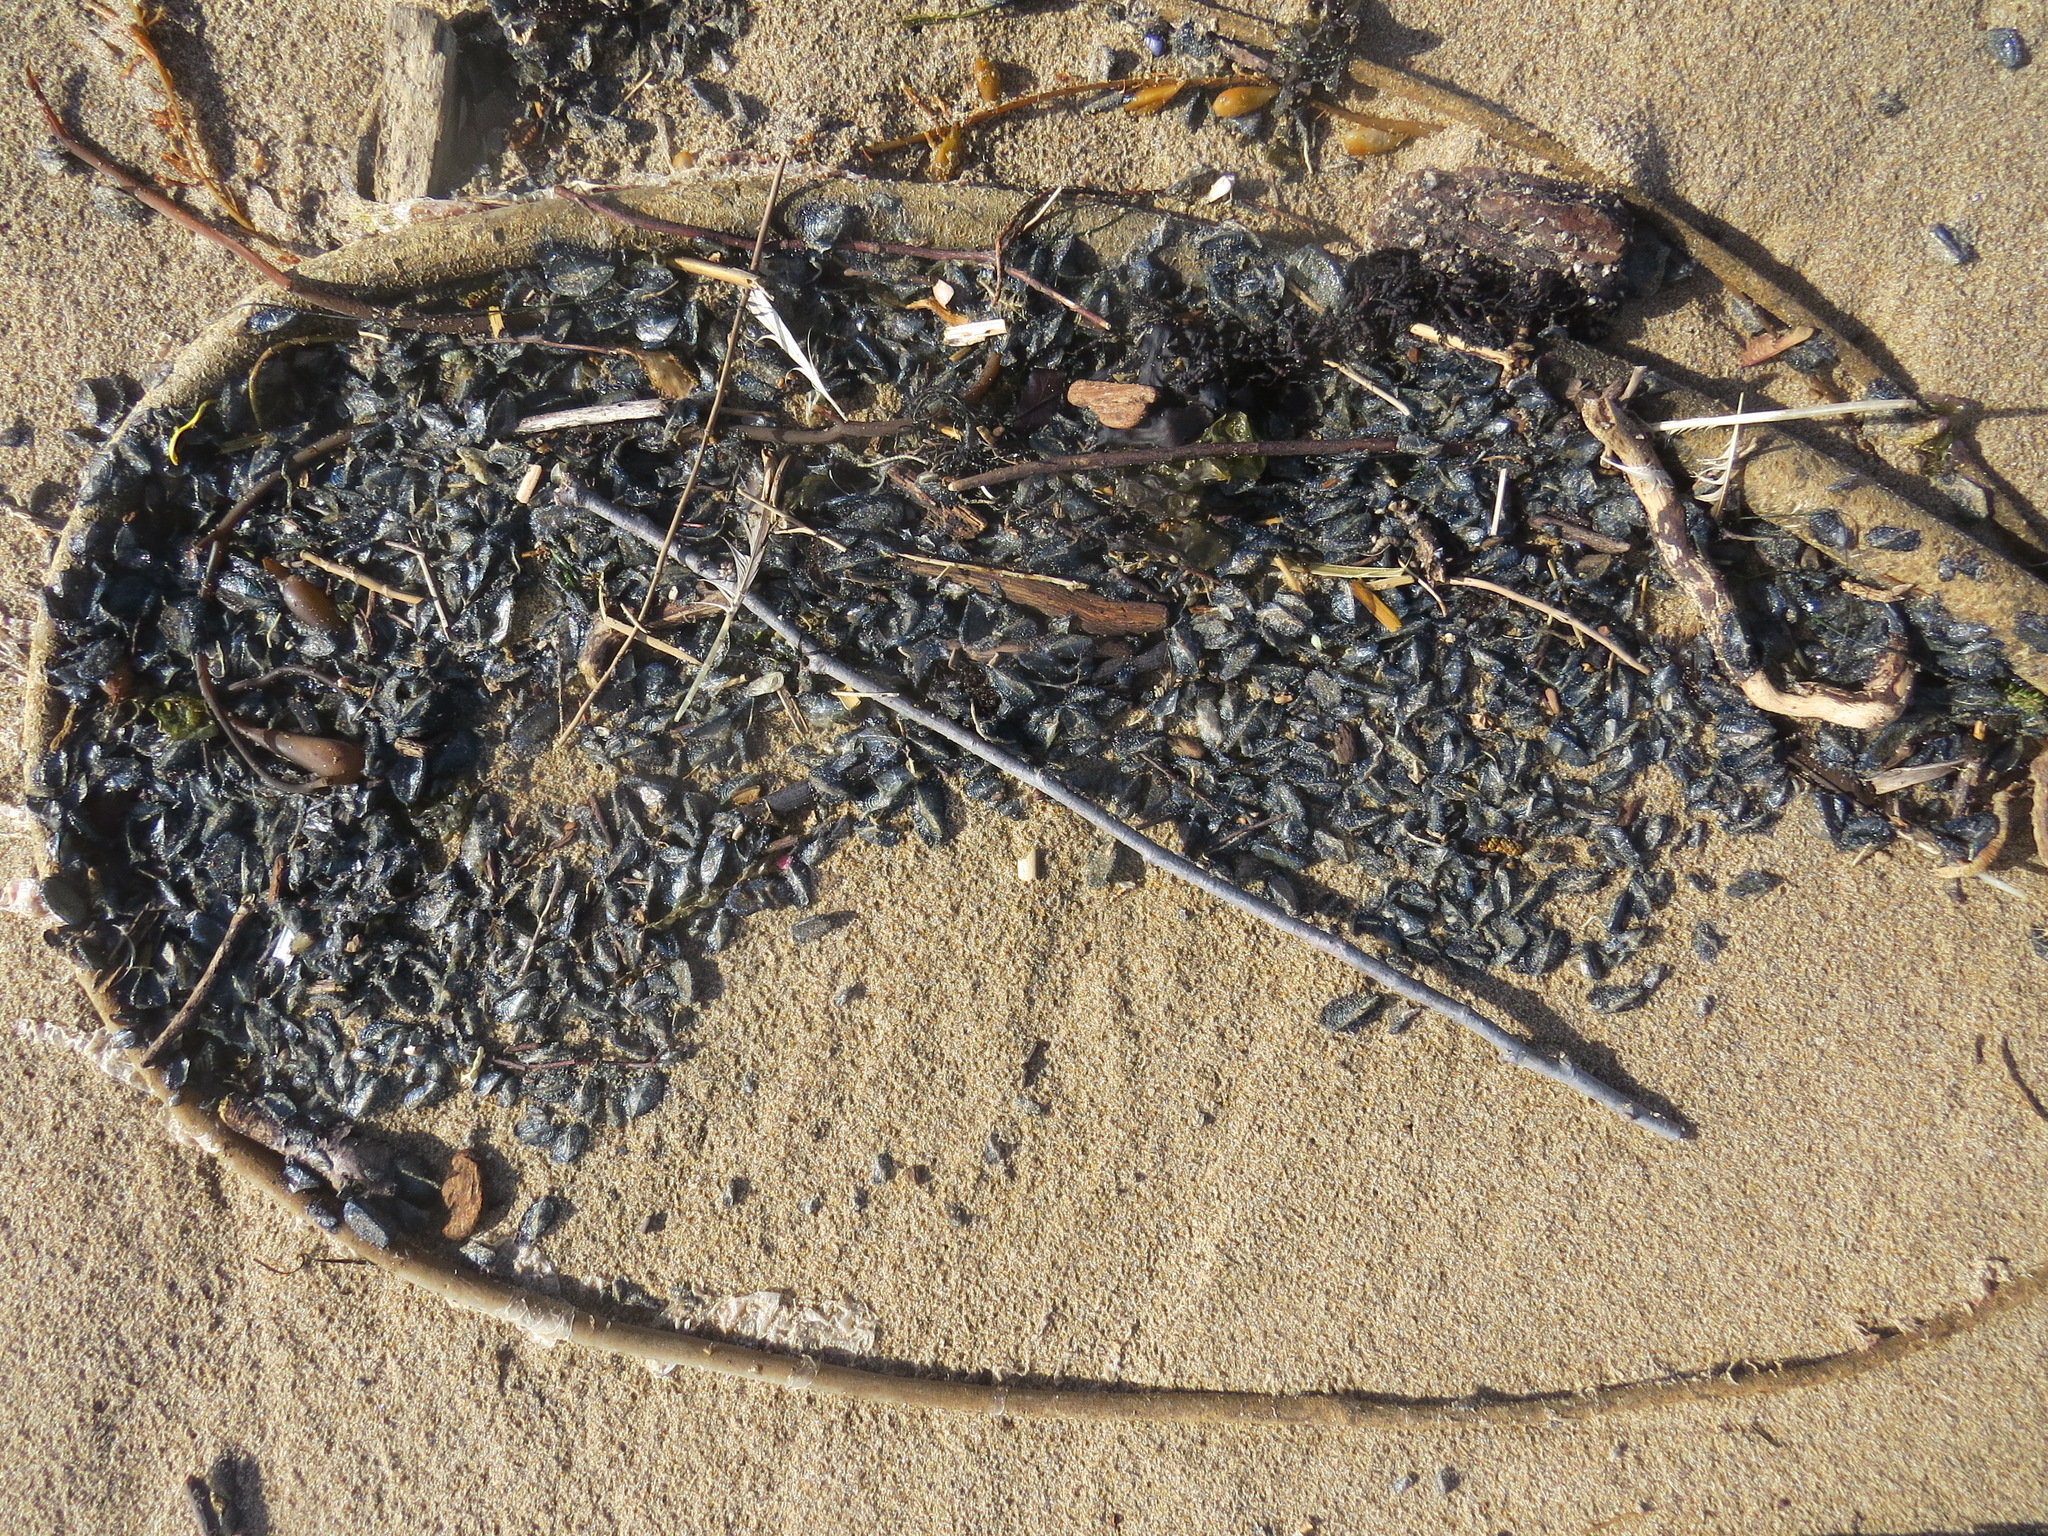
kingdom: Animalia
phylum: Cnidaria
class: Hydrozoa
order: Anthoathecata
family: Porpitidae
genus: Velella
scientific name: Velella velella
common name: By-the-wind-sailor
